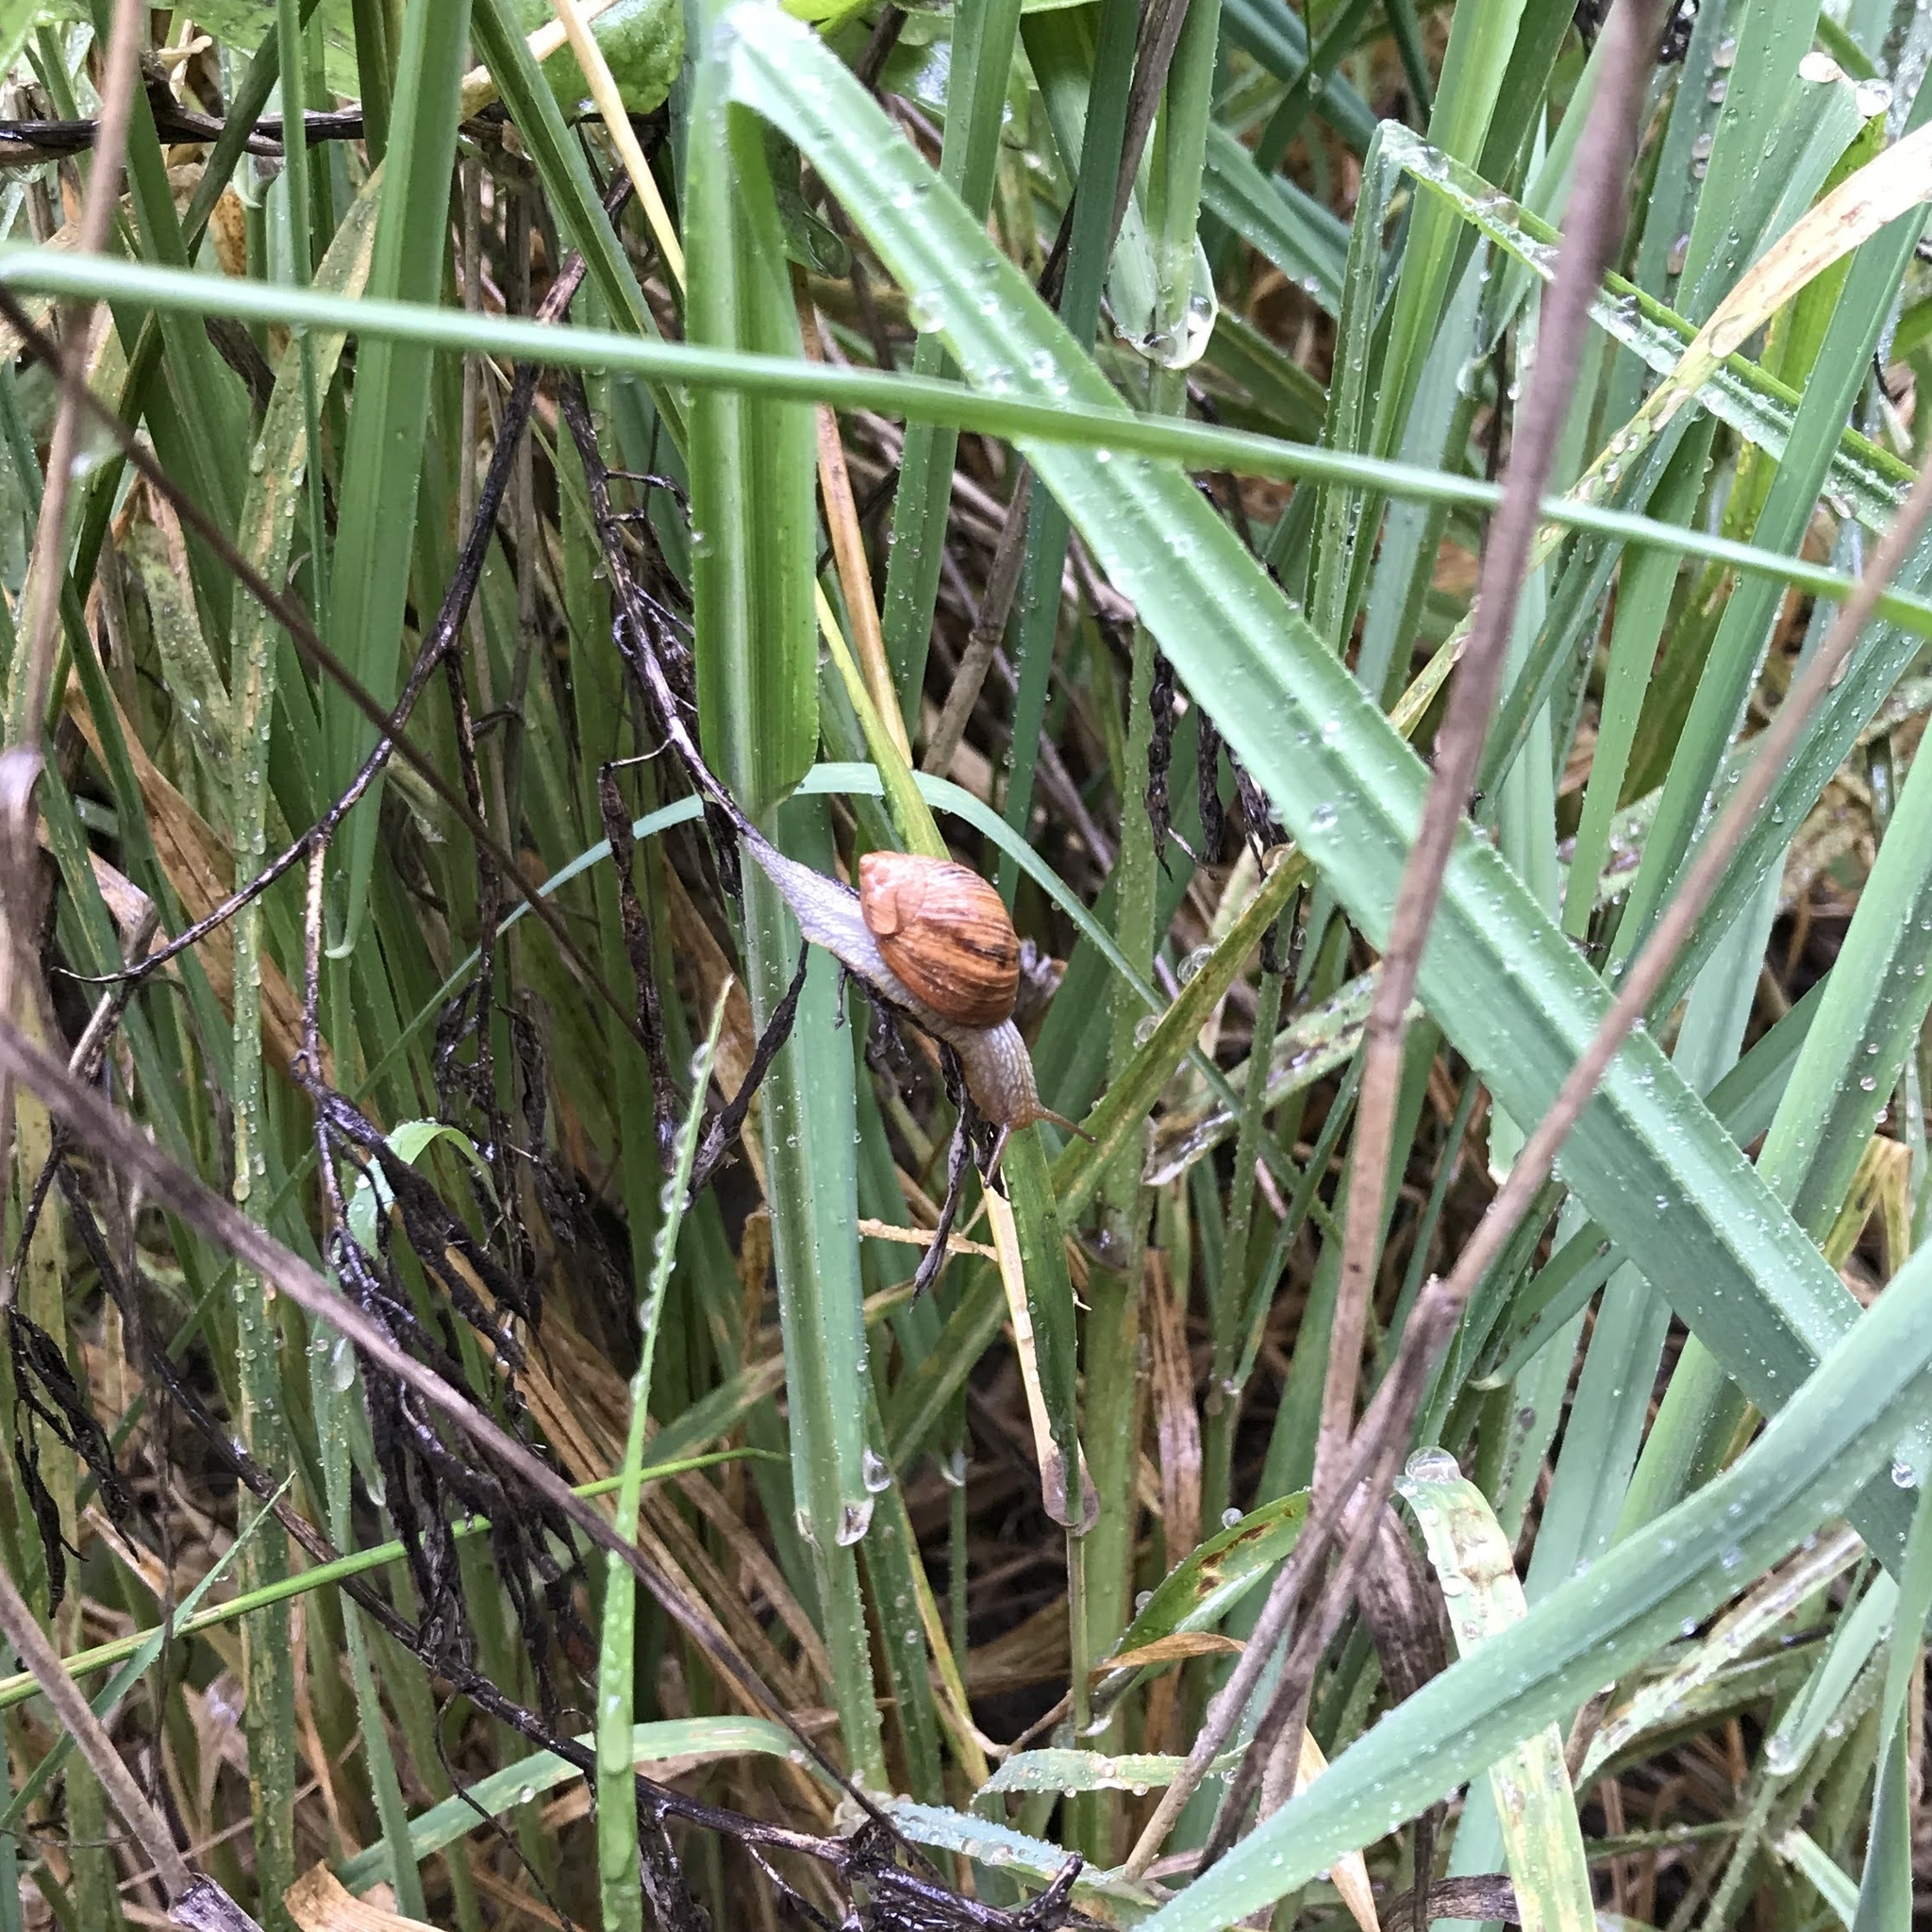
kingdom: Animalia
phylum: Mollusca
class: Gastropoda
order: Stylommatophora
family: Bothriembryontidae
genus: Plectostylus
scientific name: Plectostylus araucanus
